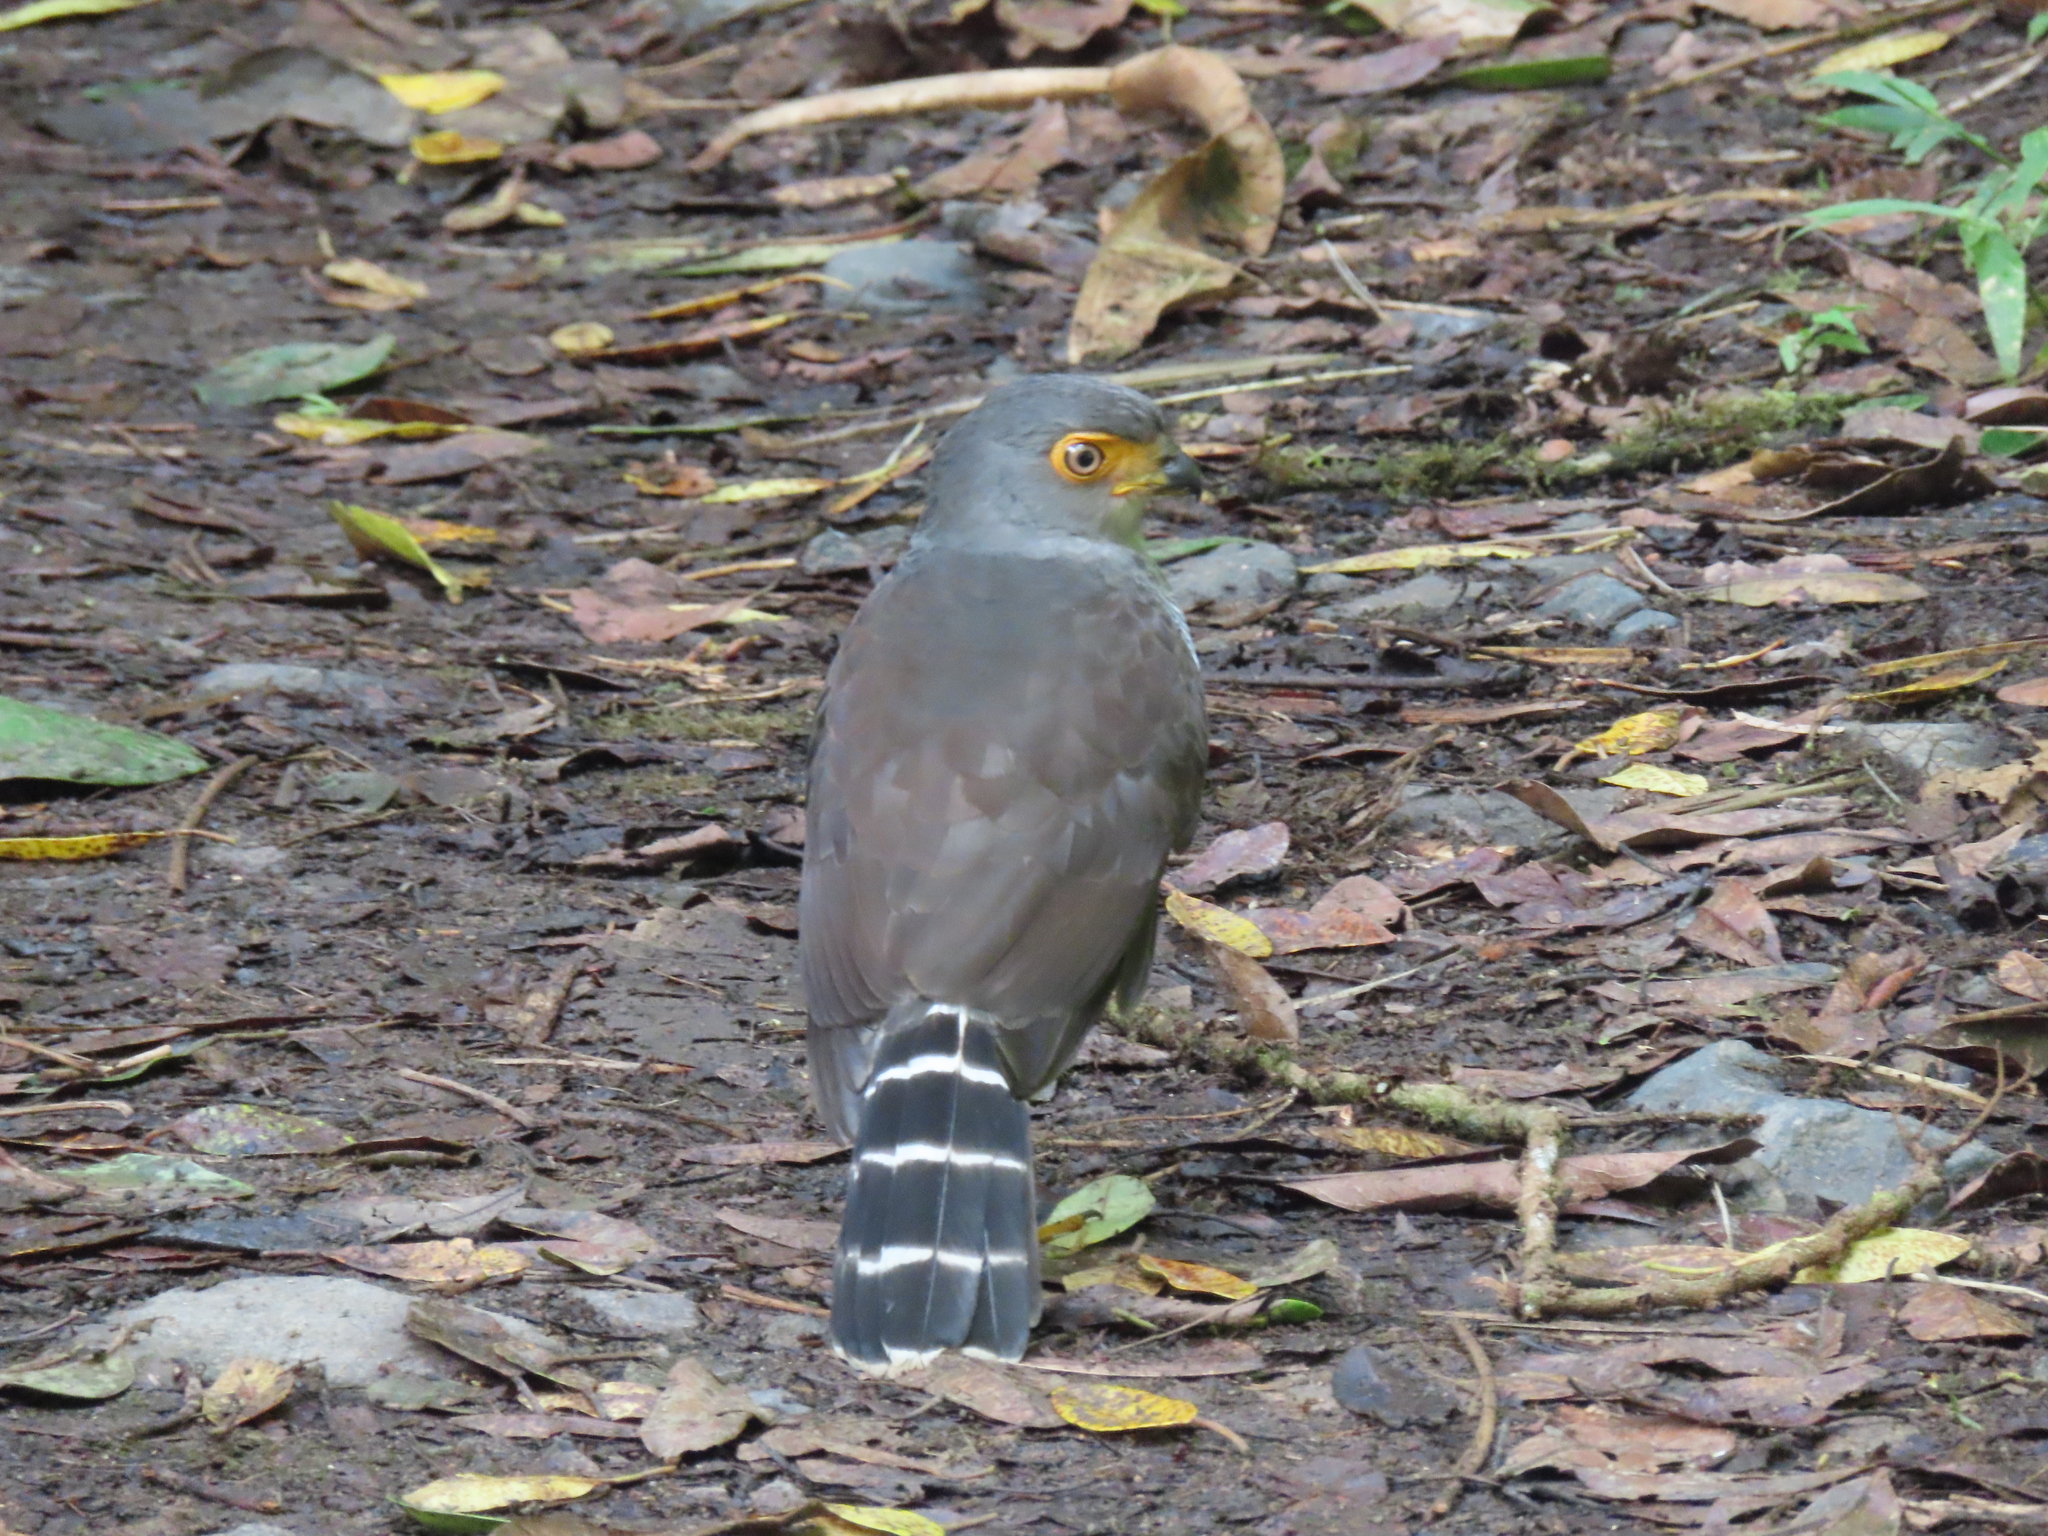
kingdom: Animalia
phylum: Chordata
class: Aves
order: Falconiformes
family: Falconidae
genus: Micrastur
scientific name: Micrastur ruficollis
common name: Barred forest-falcon
